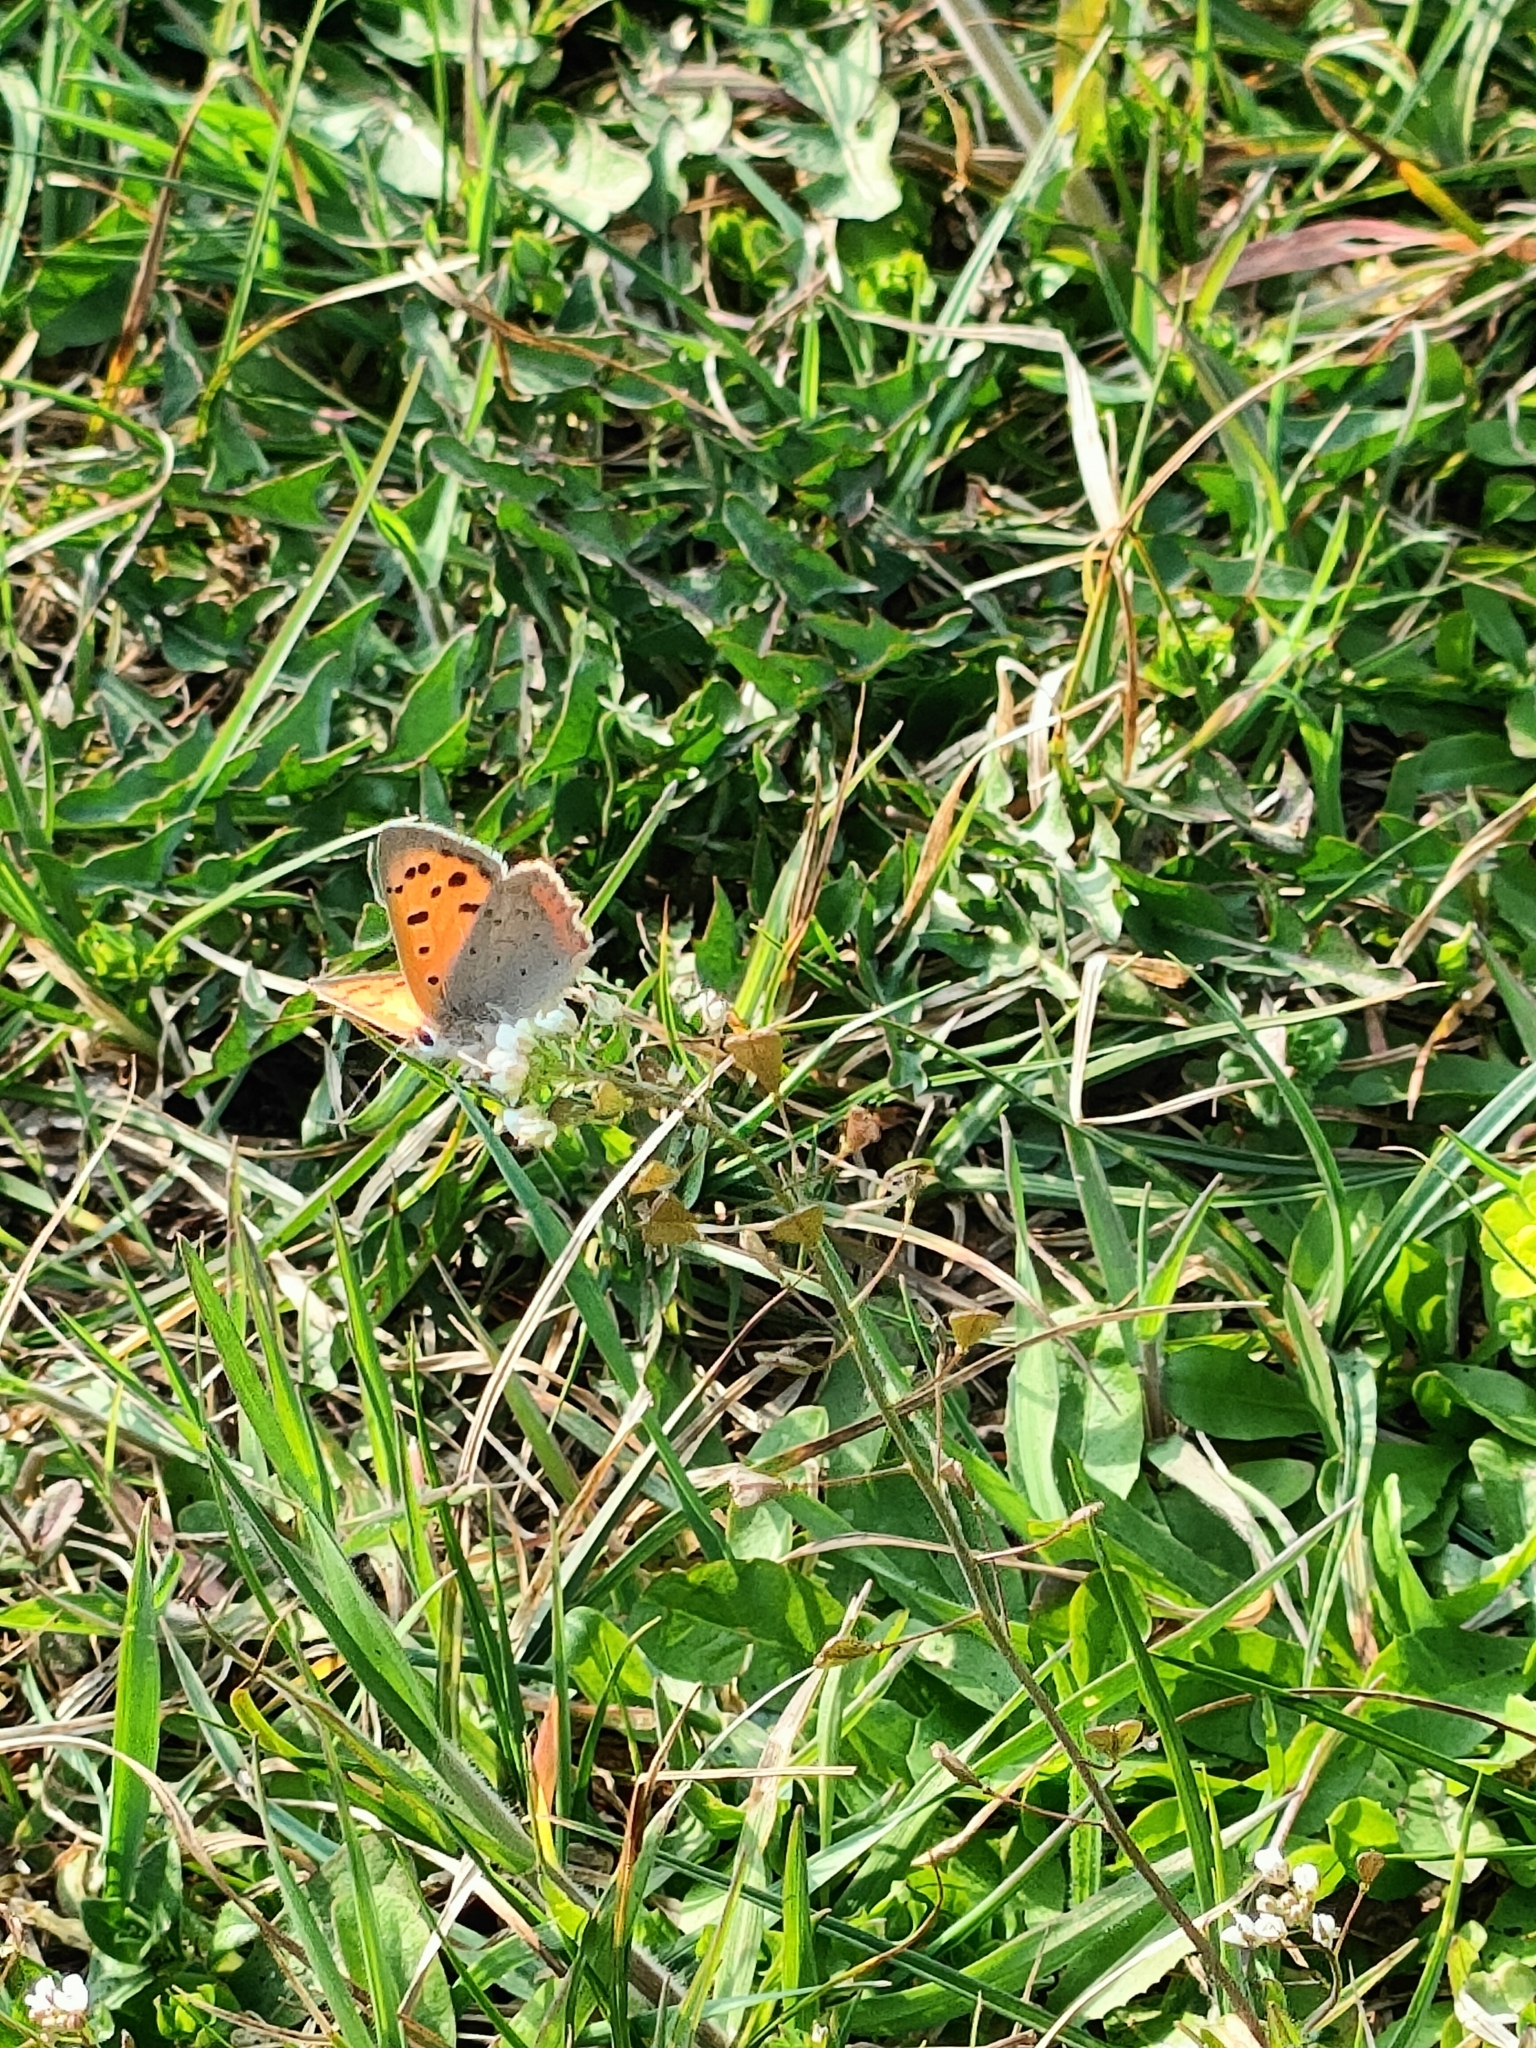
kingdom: Animalia
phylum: Arthropoda
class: Insecta
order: Lepidoptera
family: Lycaenidae
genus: Lycaena
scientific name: Lycaena phlaeas
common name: Small copper
